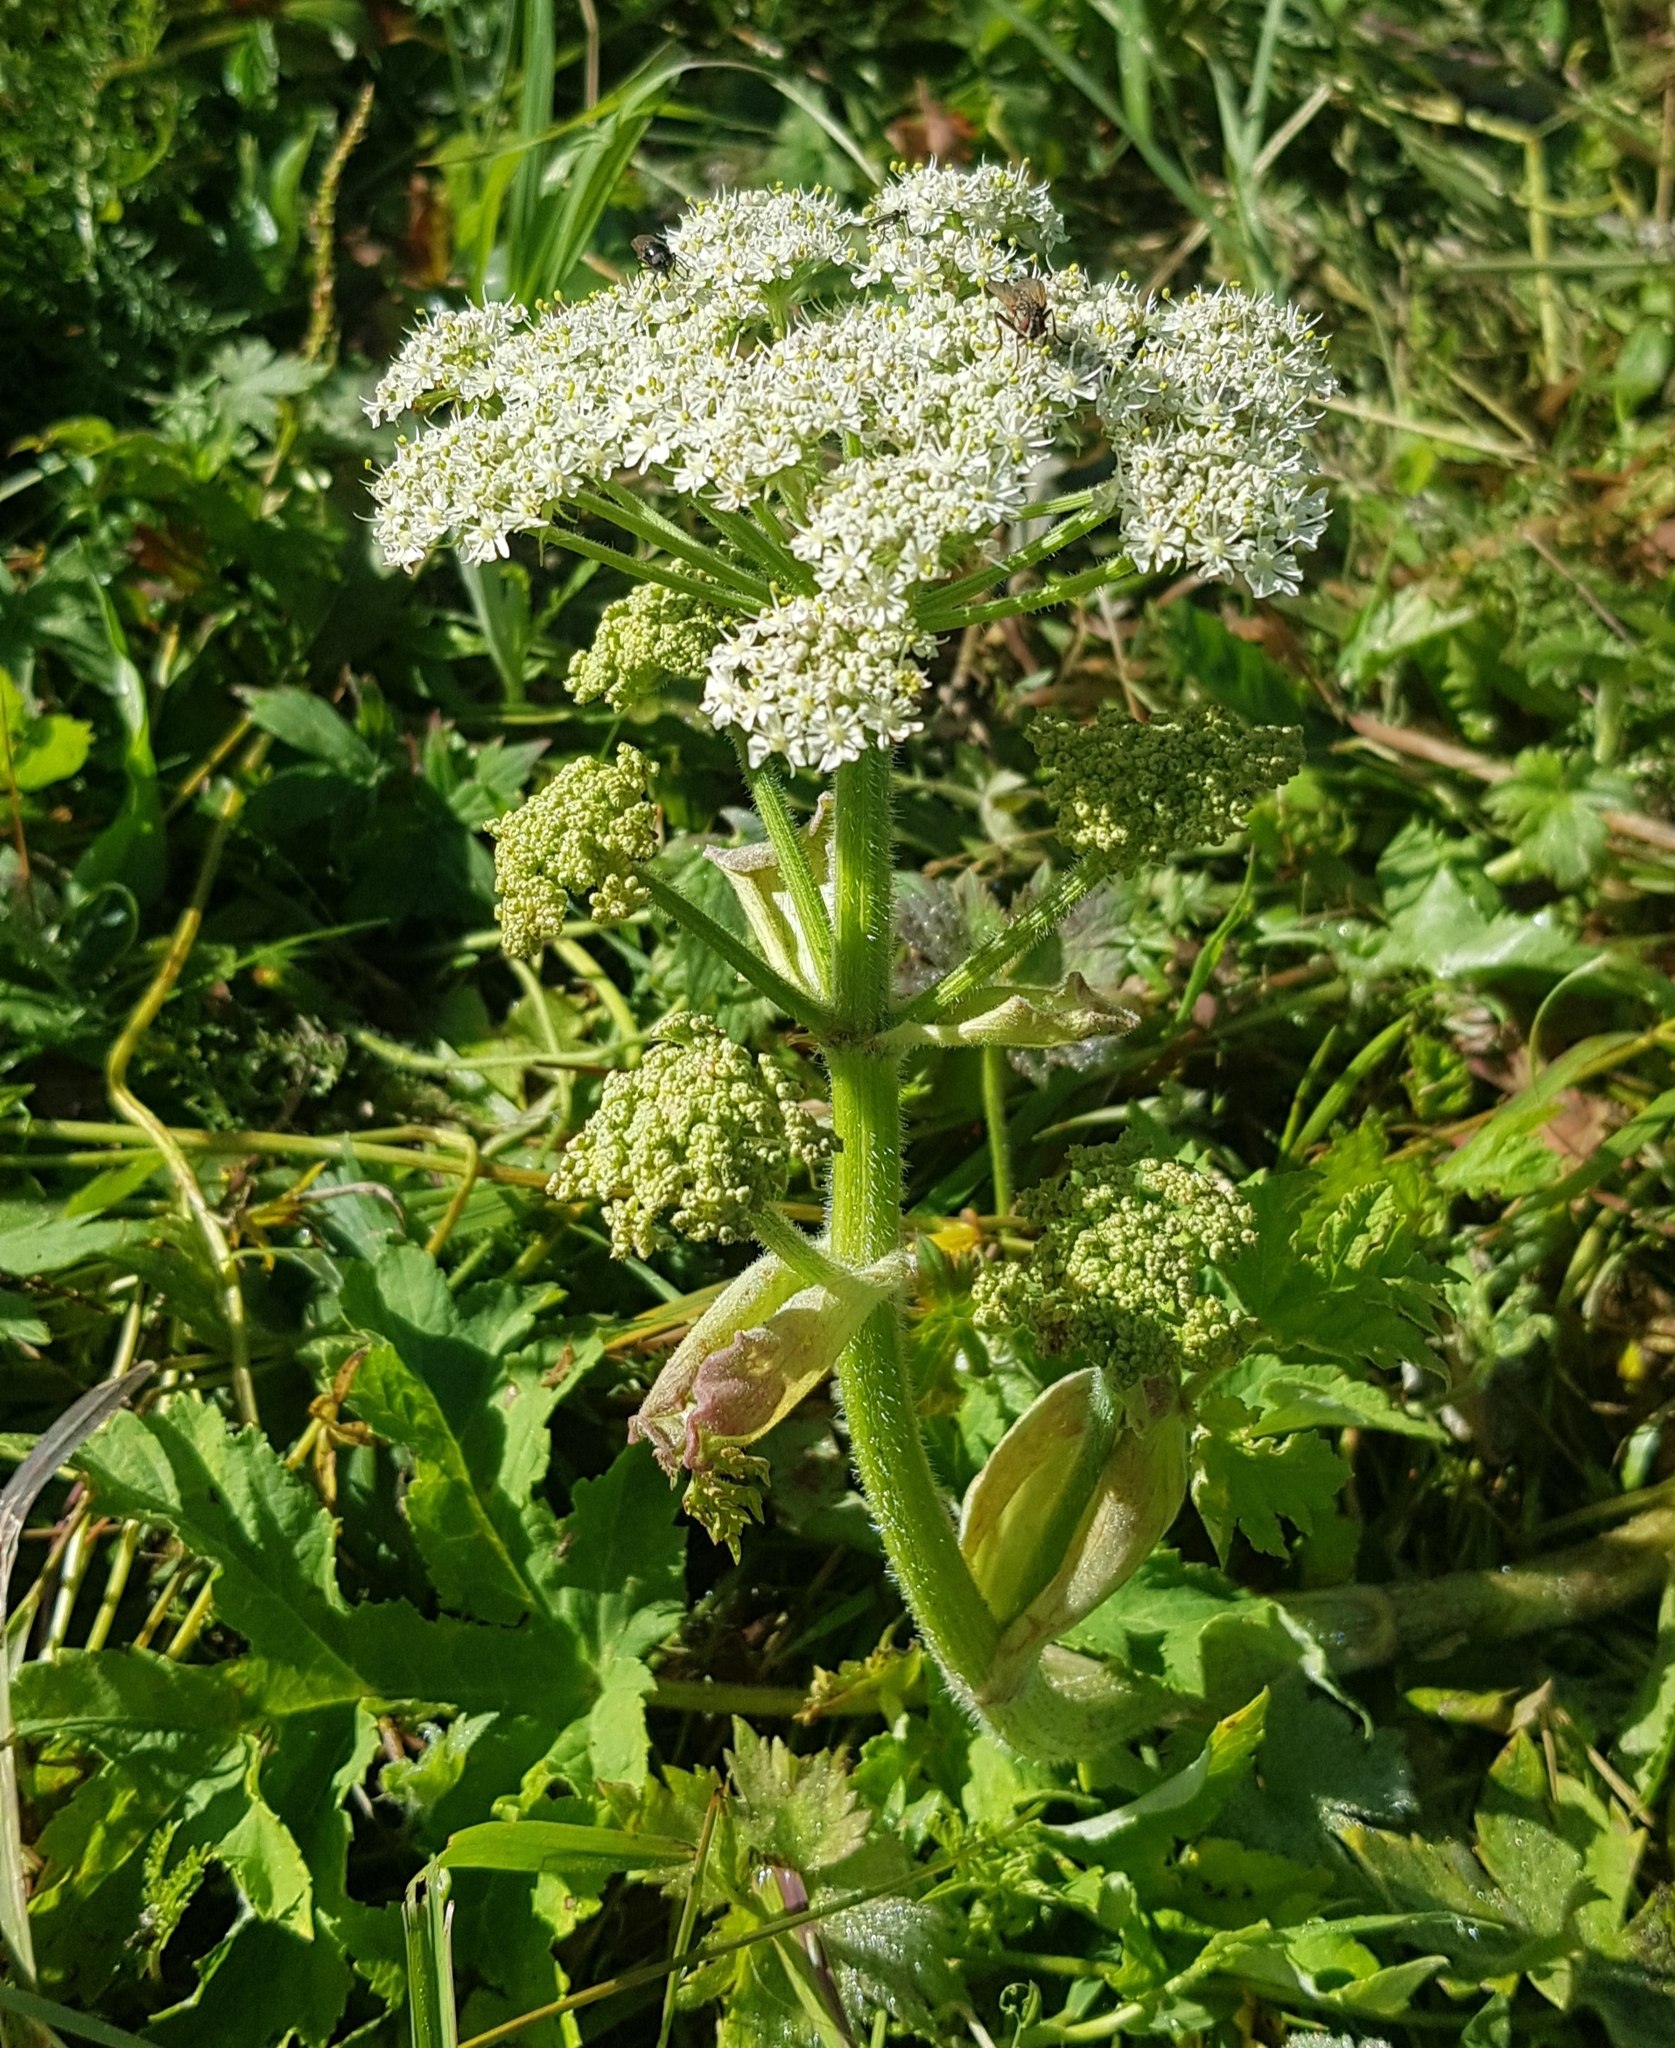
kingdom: Plantae
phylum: Tracheophyta
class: Magnoliopsida
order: Apiales
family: Apiaceae
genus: Heracleum
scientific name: Heracleum dissectum
